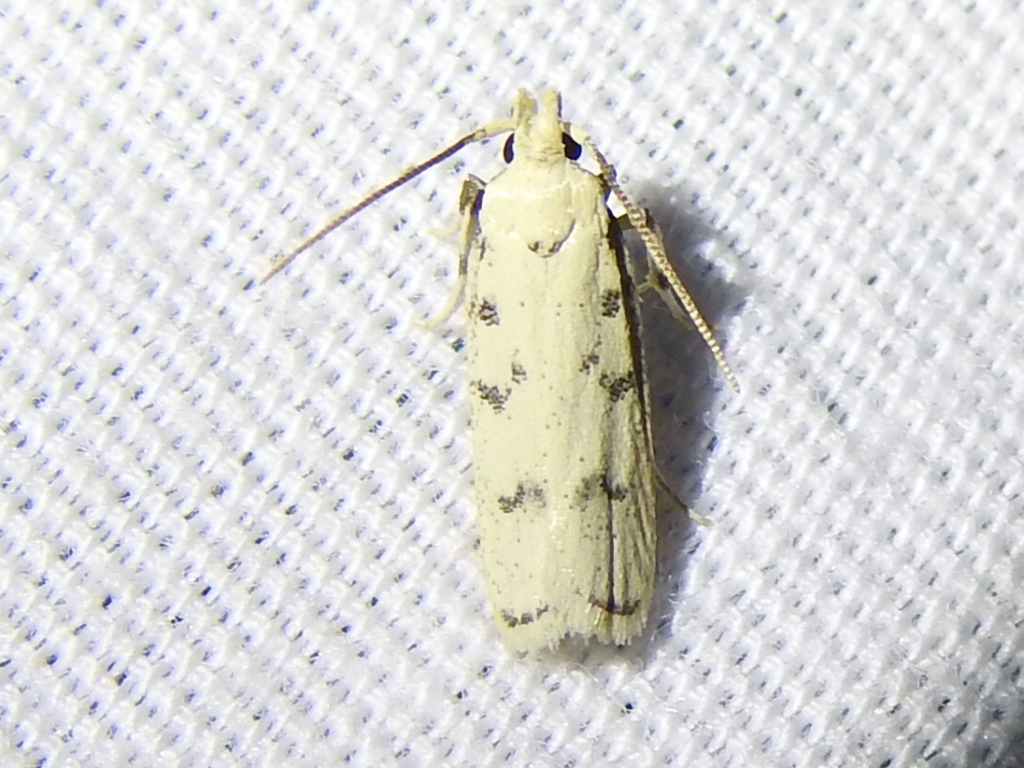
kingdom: Animalia
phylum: Arthropoda
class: Insecta
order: Lepidoptera
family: Autostichidae
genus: Glyphidocera
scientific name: Glyphidocera lactiflosella
